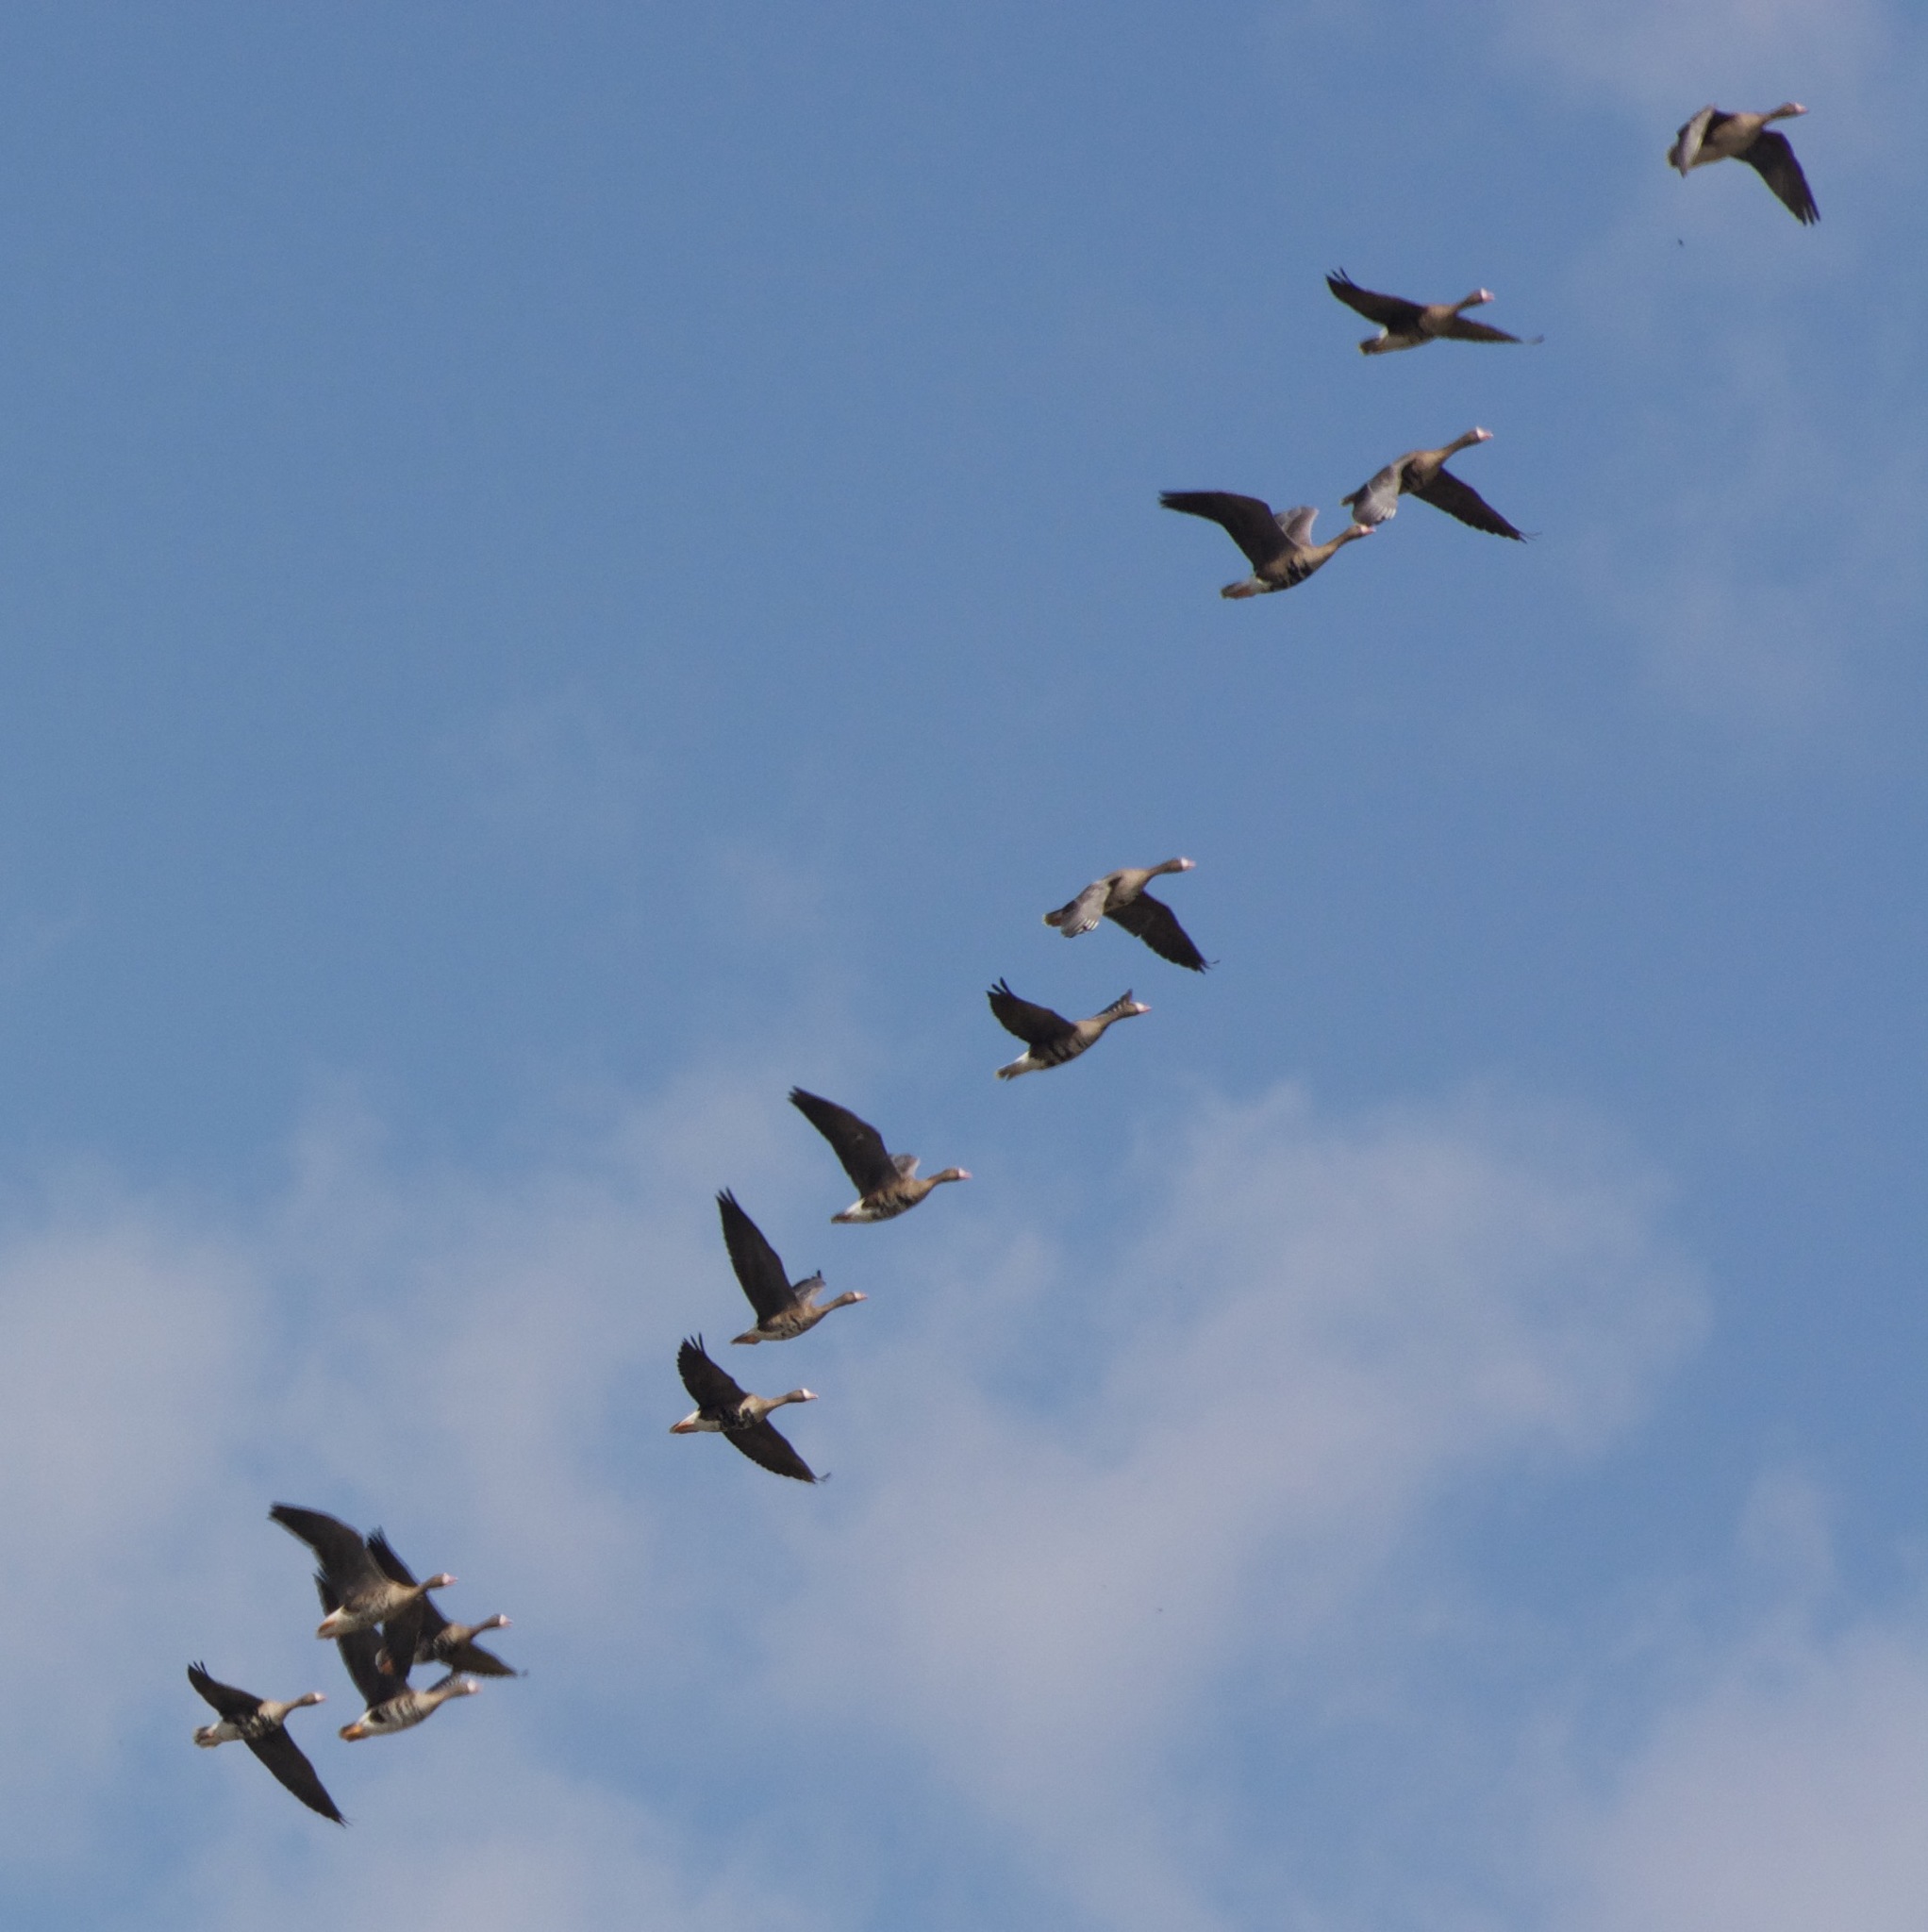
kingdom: Animalia
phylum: Chordata
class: Aves
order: Anseriformes
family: Anatidae
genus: Anser
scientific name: Anser albifrons
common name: Greater white-fronted goose
